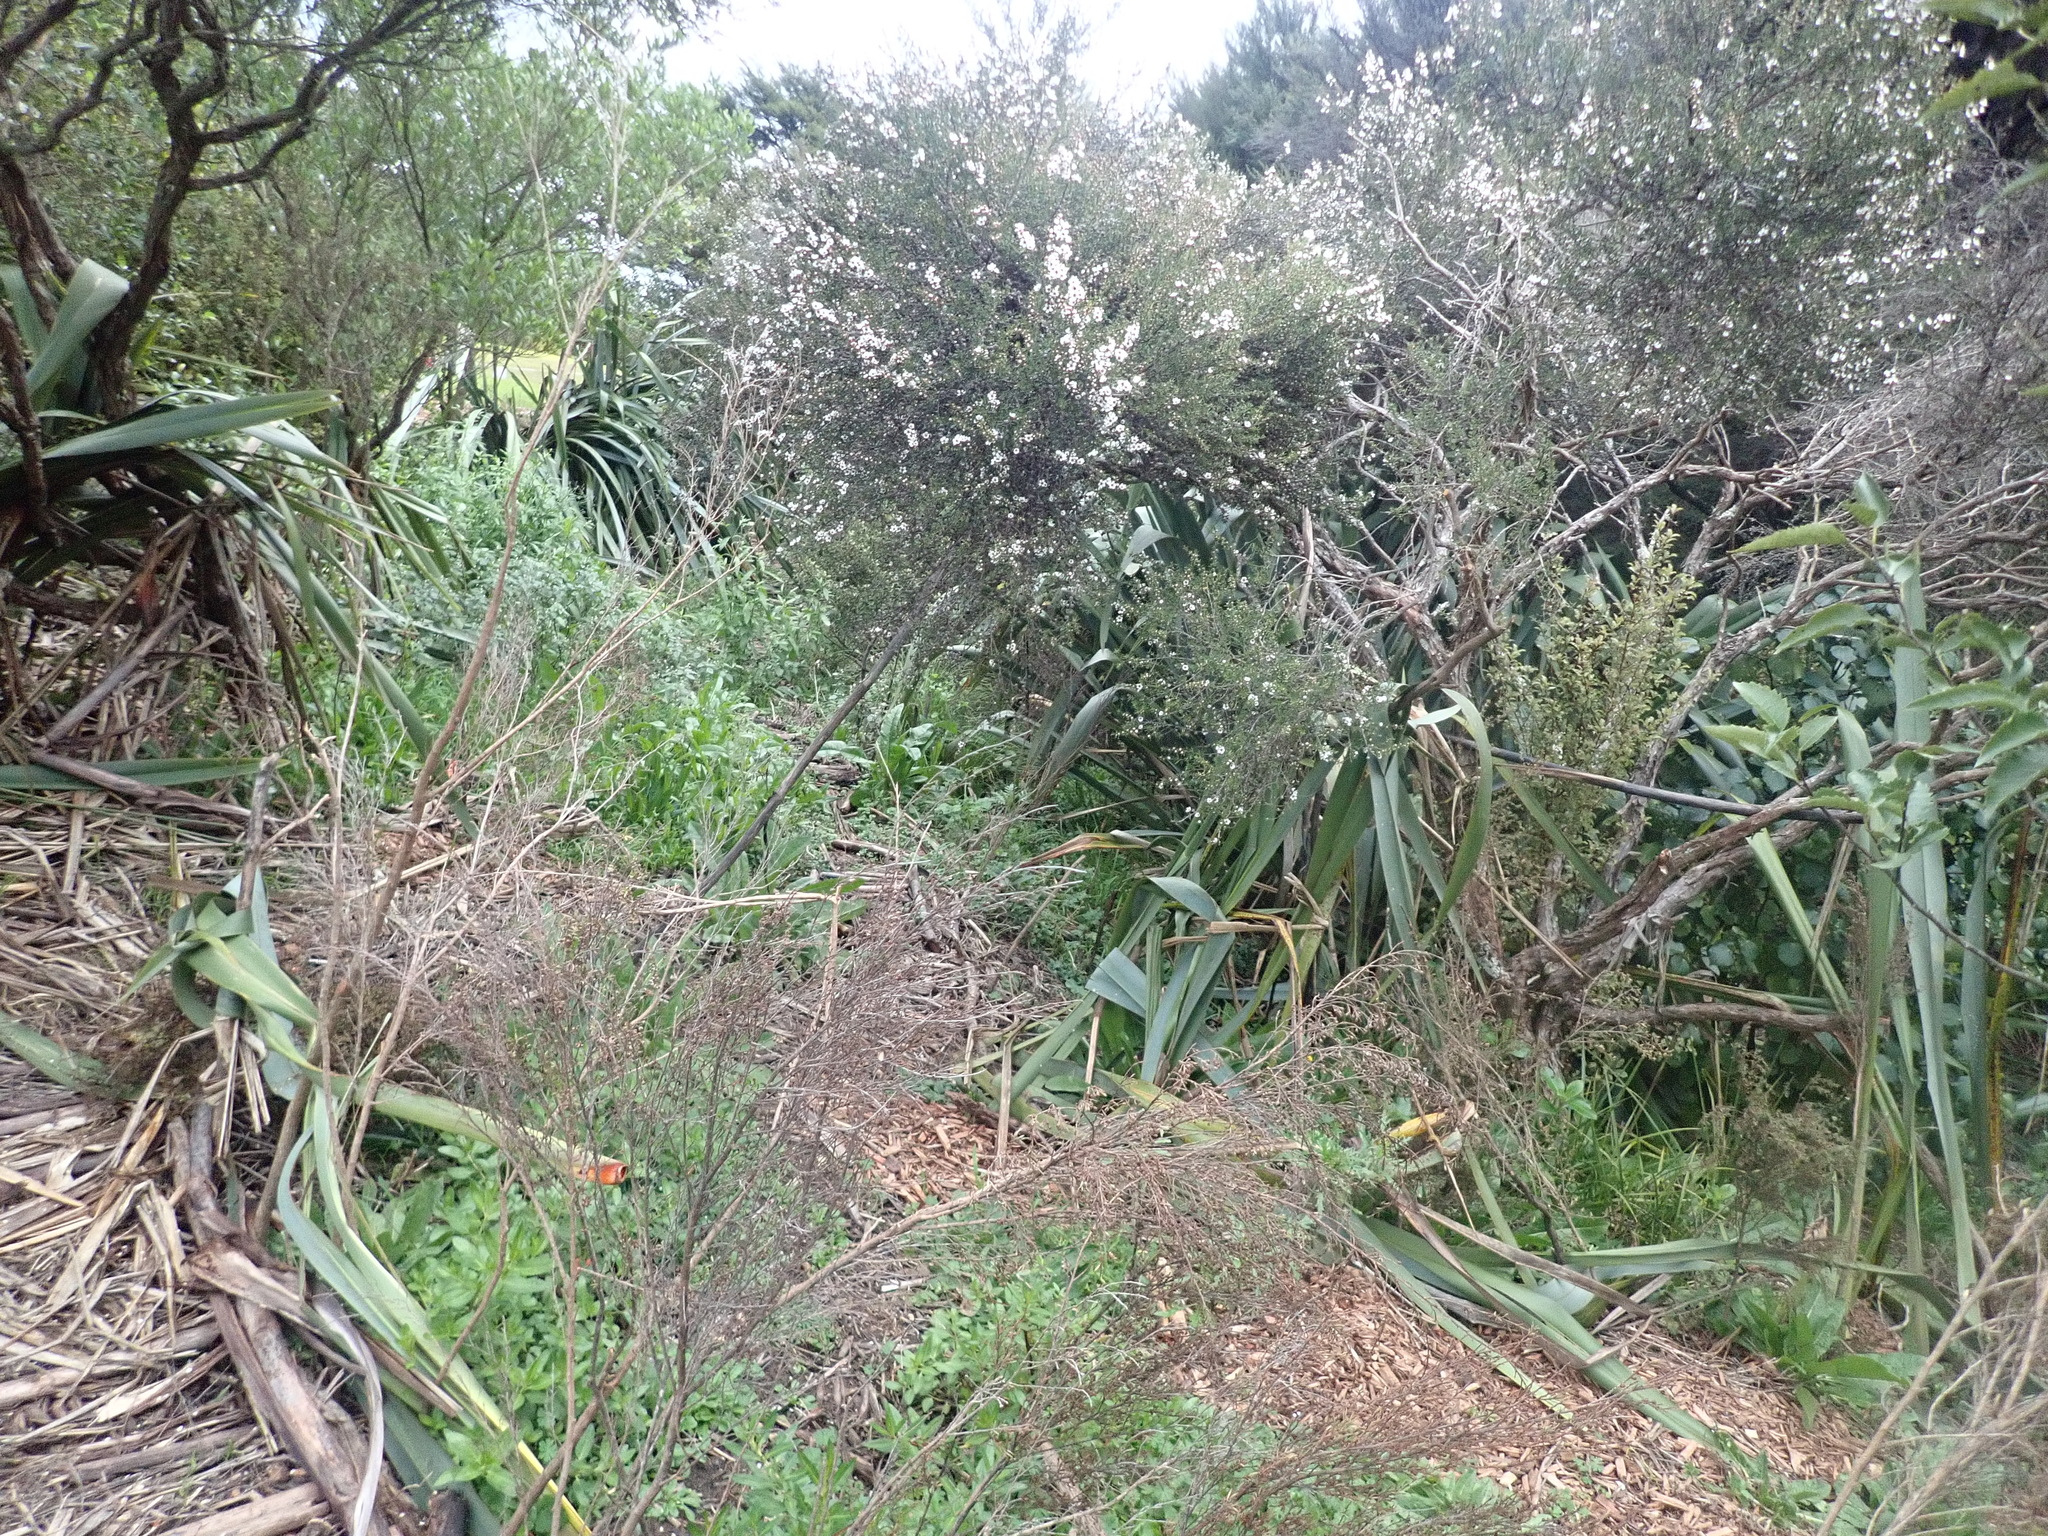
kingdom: Plantae
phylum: Tracheophyta
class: Magnoliopsida
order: Ericales
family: Primulaceae
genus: Myrsine
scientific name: Myrsine australis
